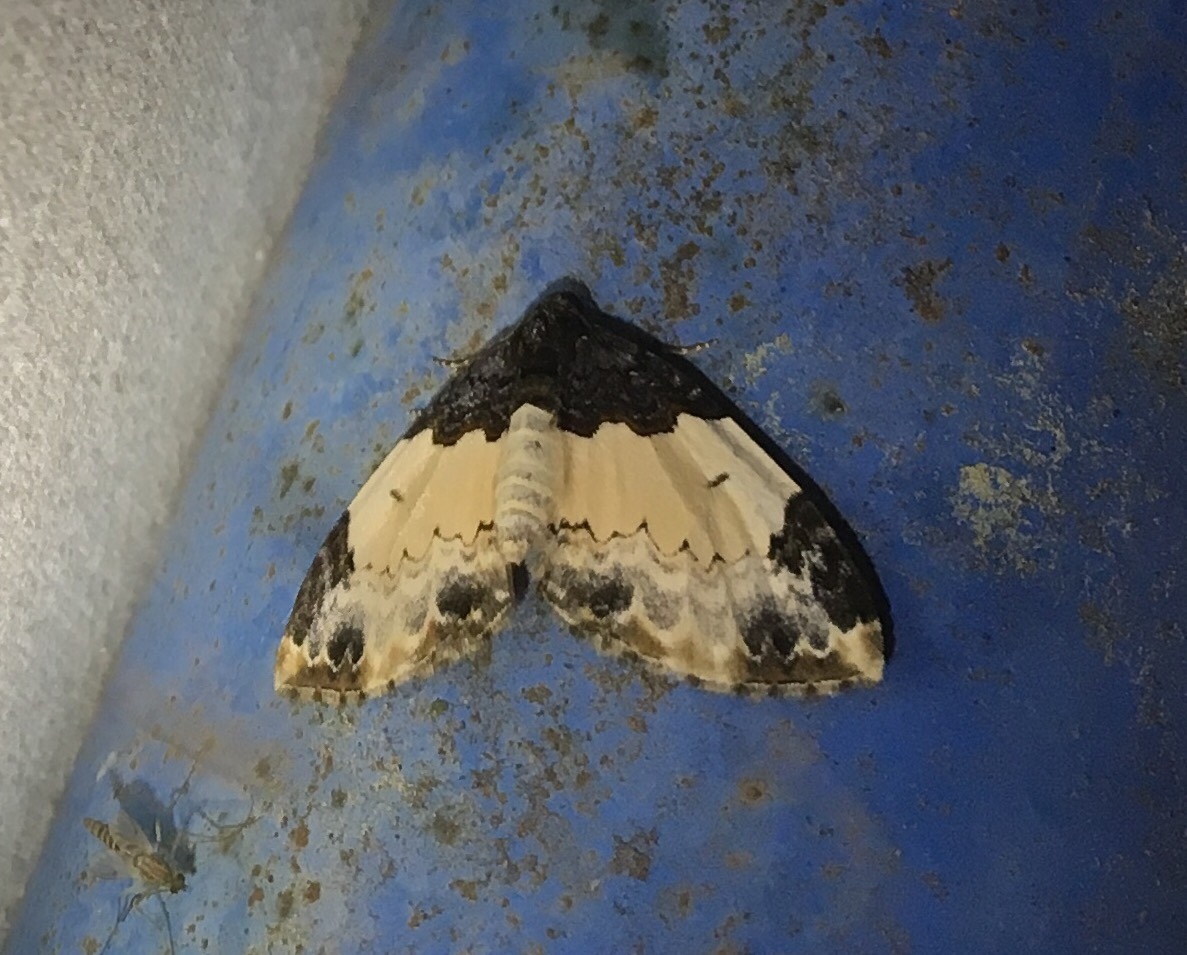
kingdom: Animalia
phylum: Arthropoda
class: Insecta
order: Lepidoptera
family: Geometridae
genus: Mesoleuca
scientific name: Mesoleuca ruficillata
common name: White-ribboned carpet moth
